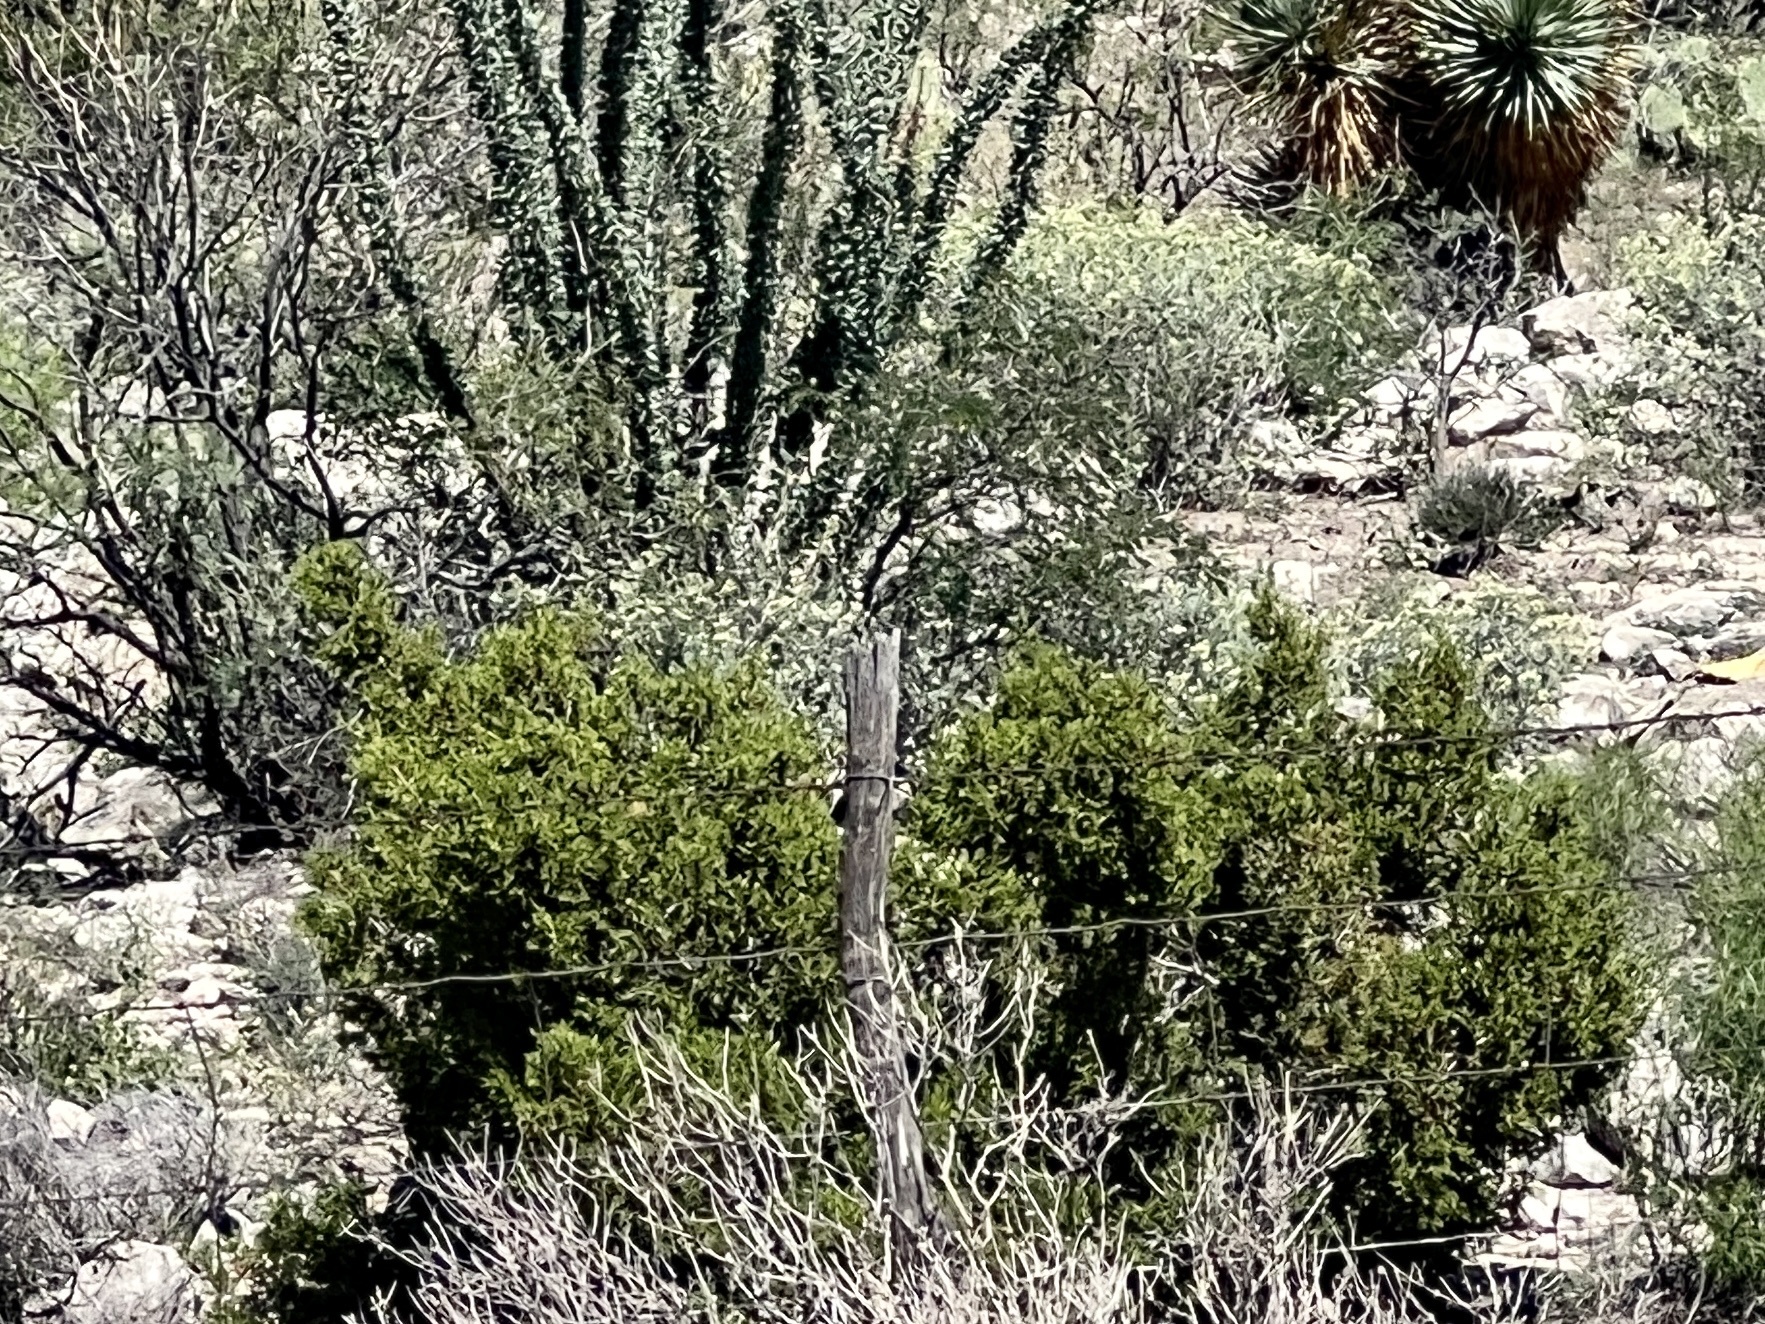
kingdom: Plantae
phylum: Tracheophyta
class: Magnoliopsida
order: Zygophyllales
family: Zygophyllaceae
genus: Larrea
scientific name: Larrea tridentata
